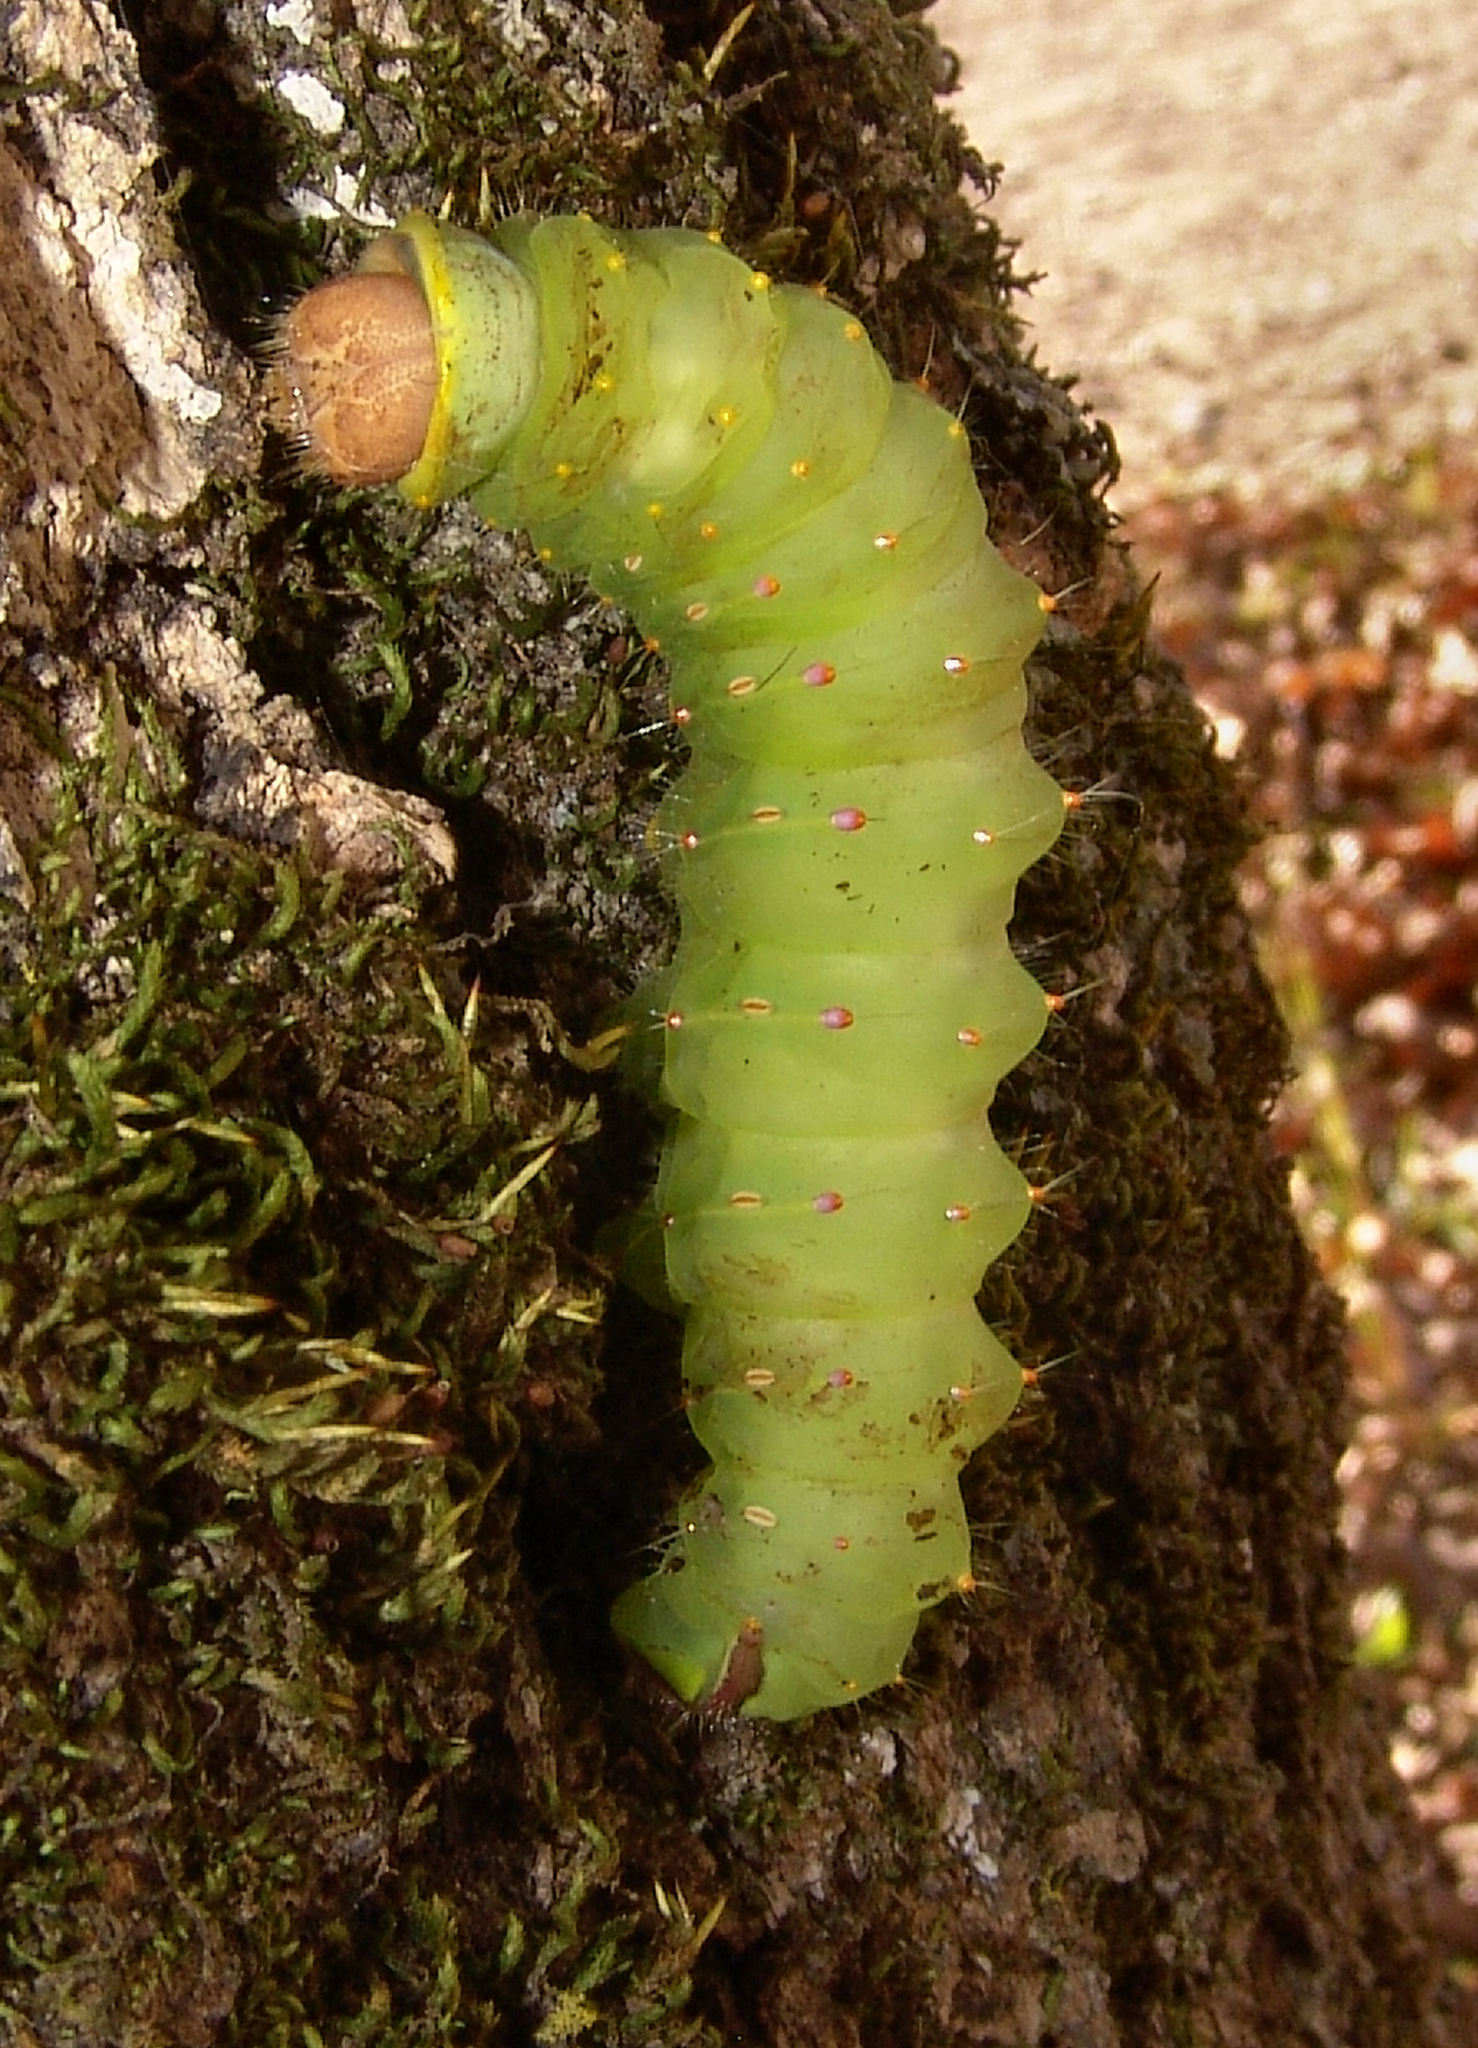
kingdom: Animalia
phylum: Arthropoda
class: Insecta
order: Lepidoptera
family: Saturniidae
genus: Antheraea
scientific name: Antheraea polyphemus
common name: Polyphemus moth
